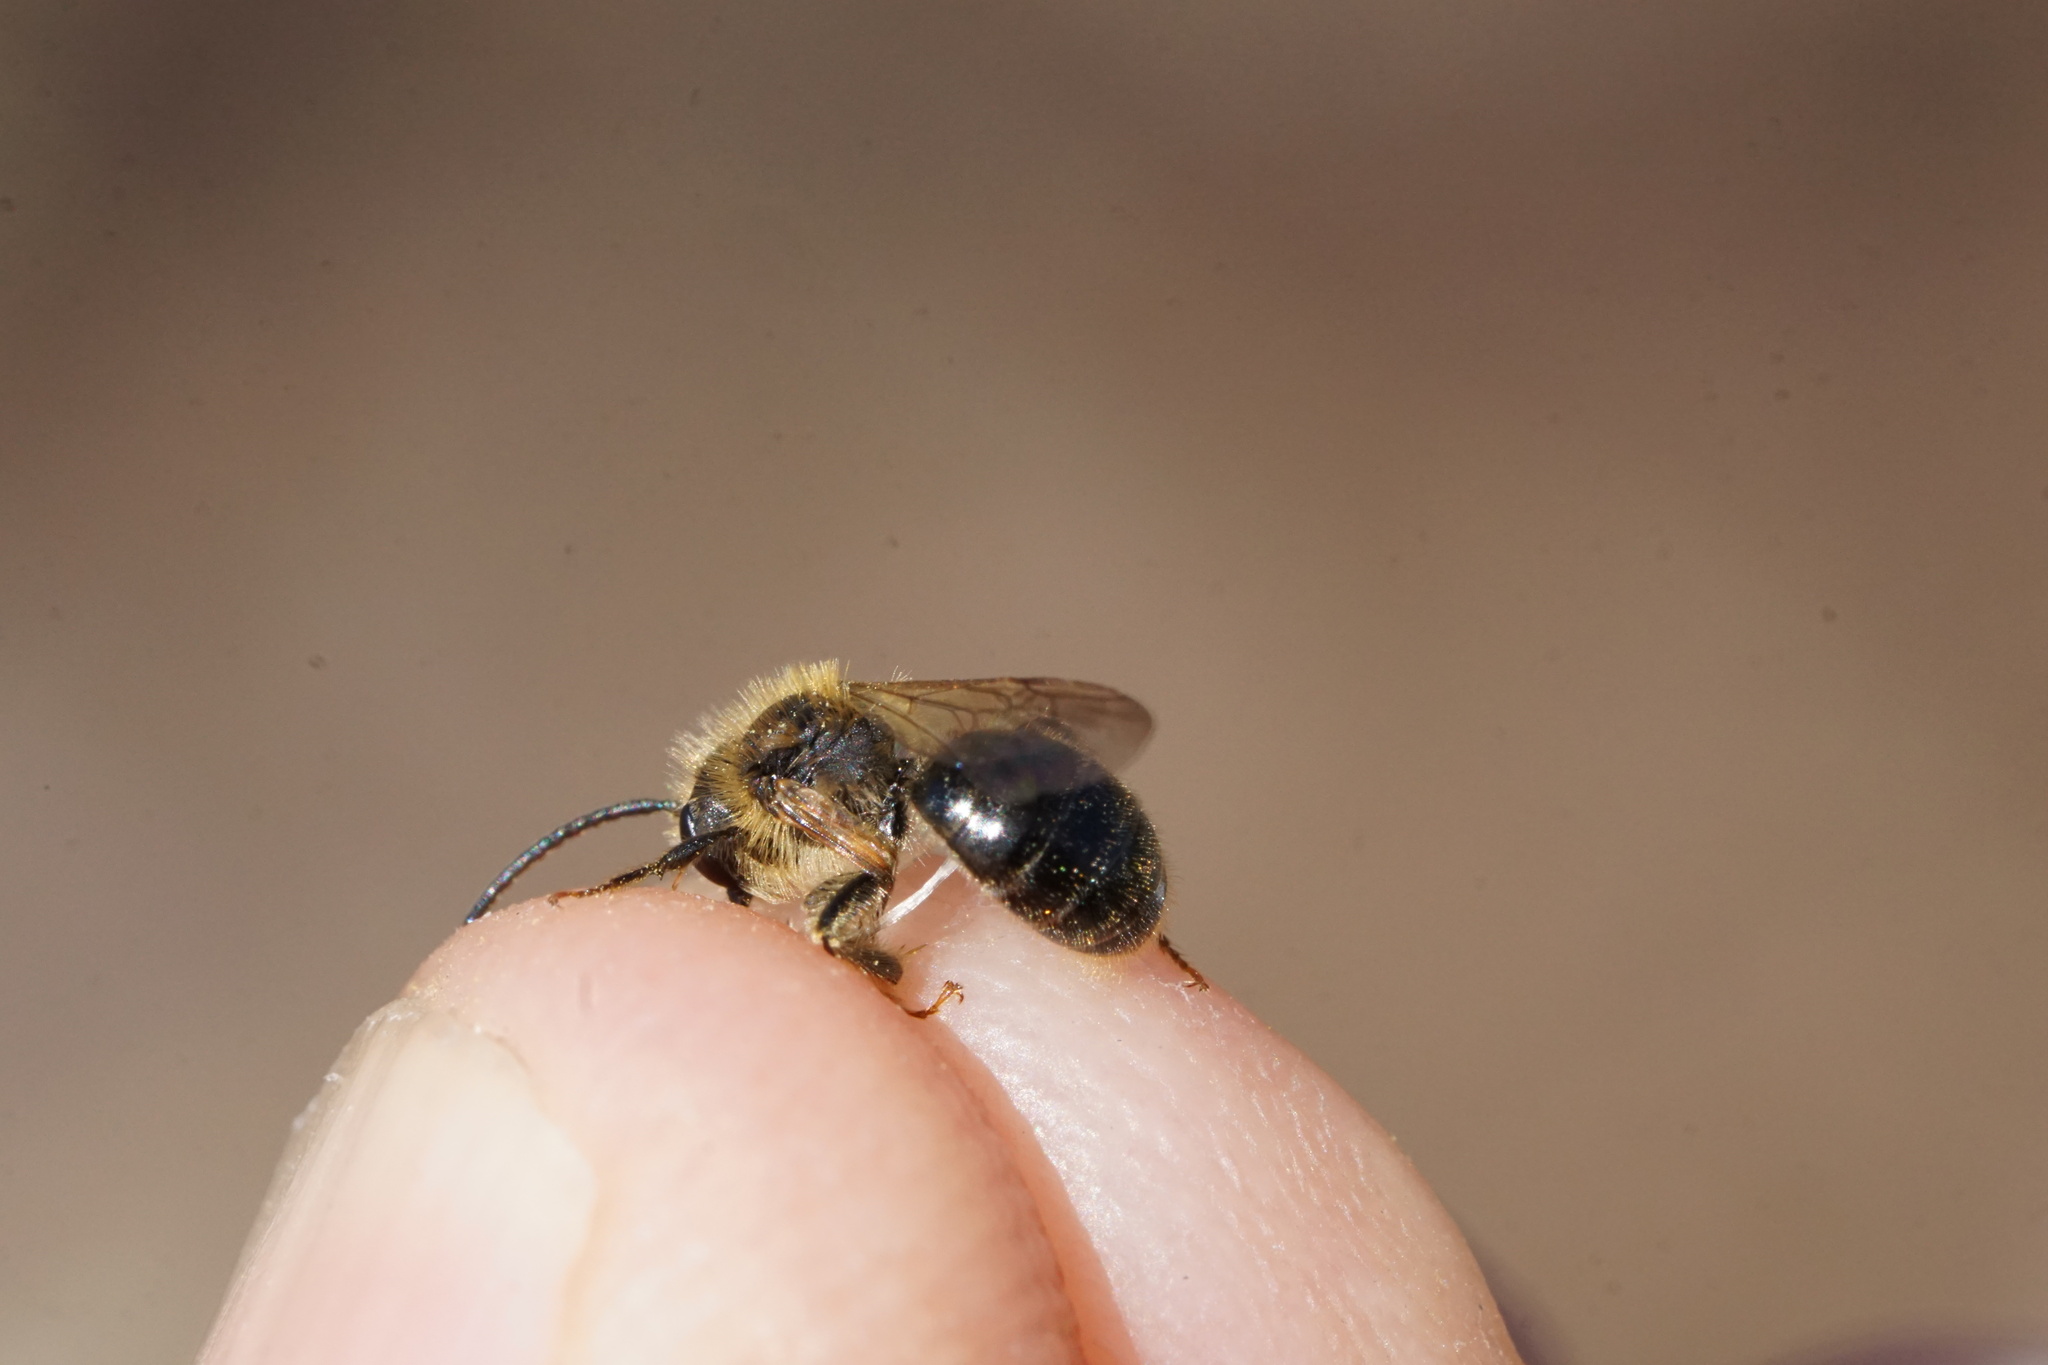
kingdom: Animalia
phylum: Arthropoda
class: Insecta
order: Hymenoptera
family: Andrenidae
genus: Andrena
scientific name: Andrena miserabilis
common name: Miserable mining bee
